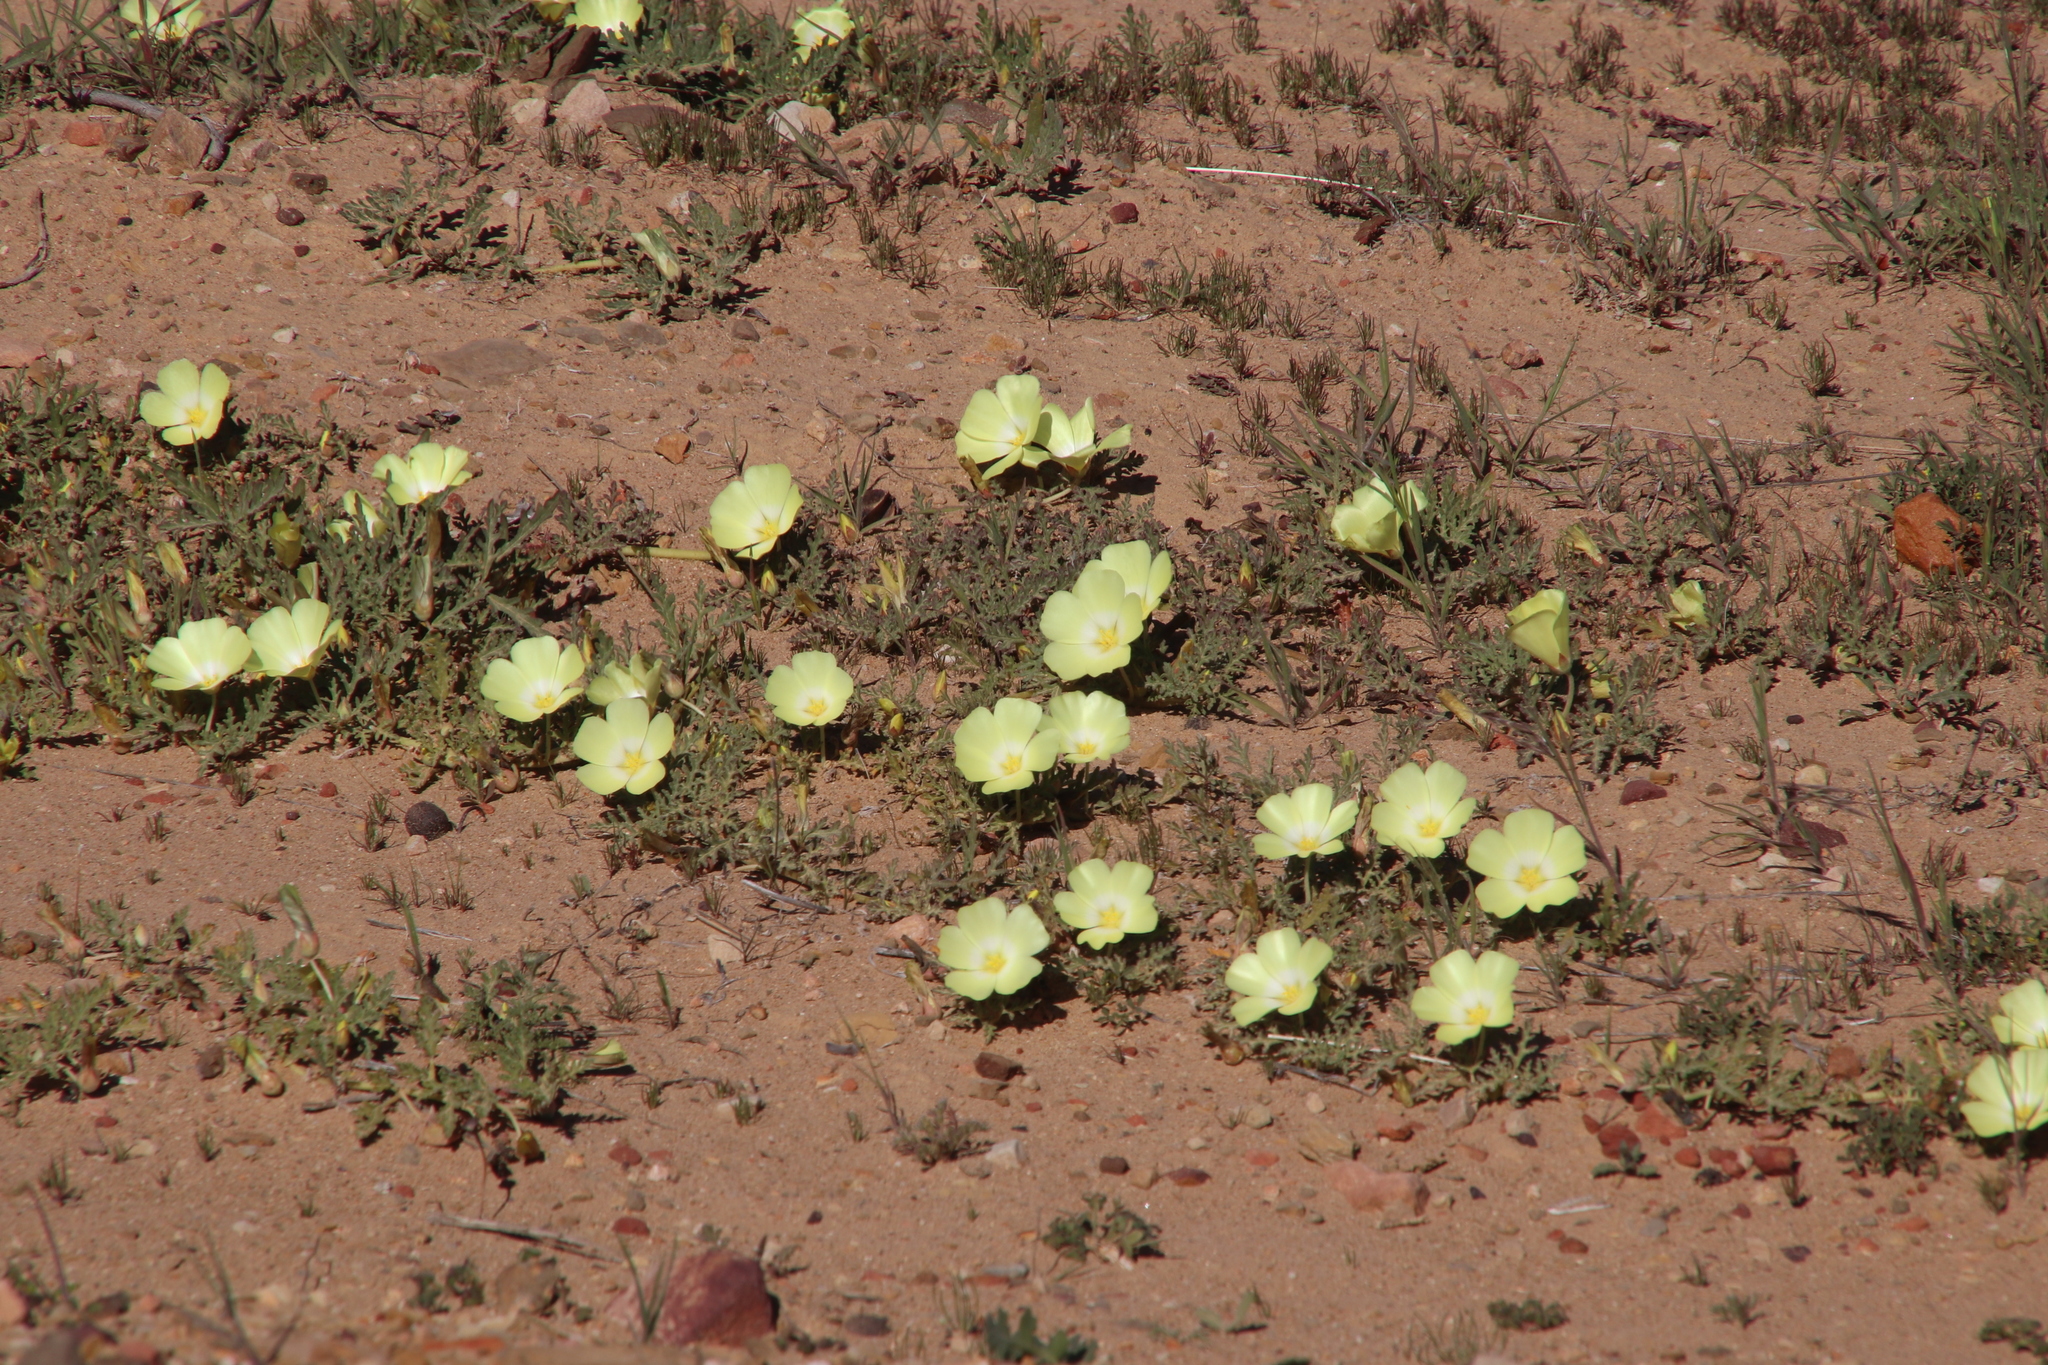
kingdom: Plantae
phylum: Tracheophyta
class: Magnoliopsida
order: Malvales
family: Neuradaceae
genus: Grielum
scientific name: Grielum humifusum
